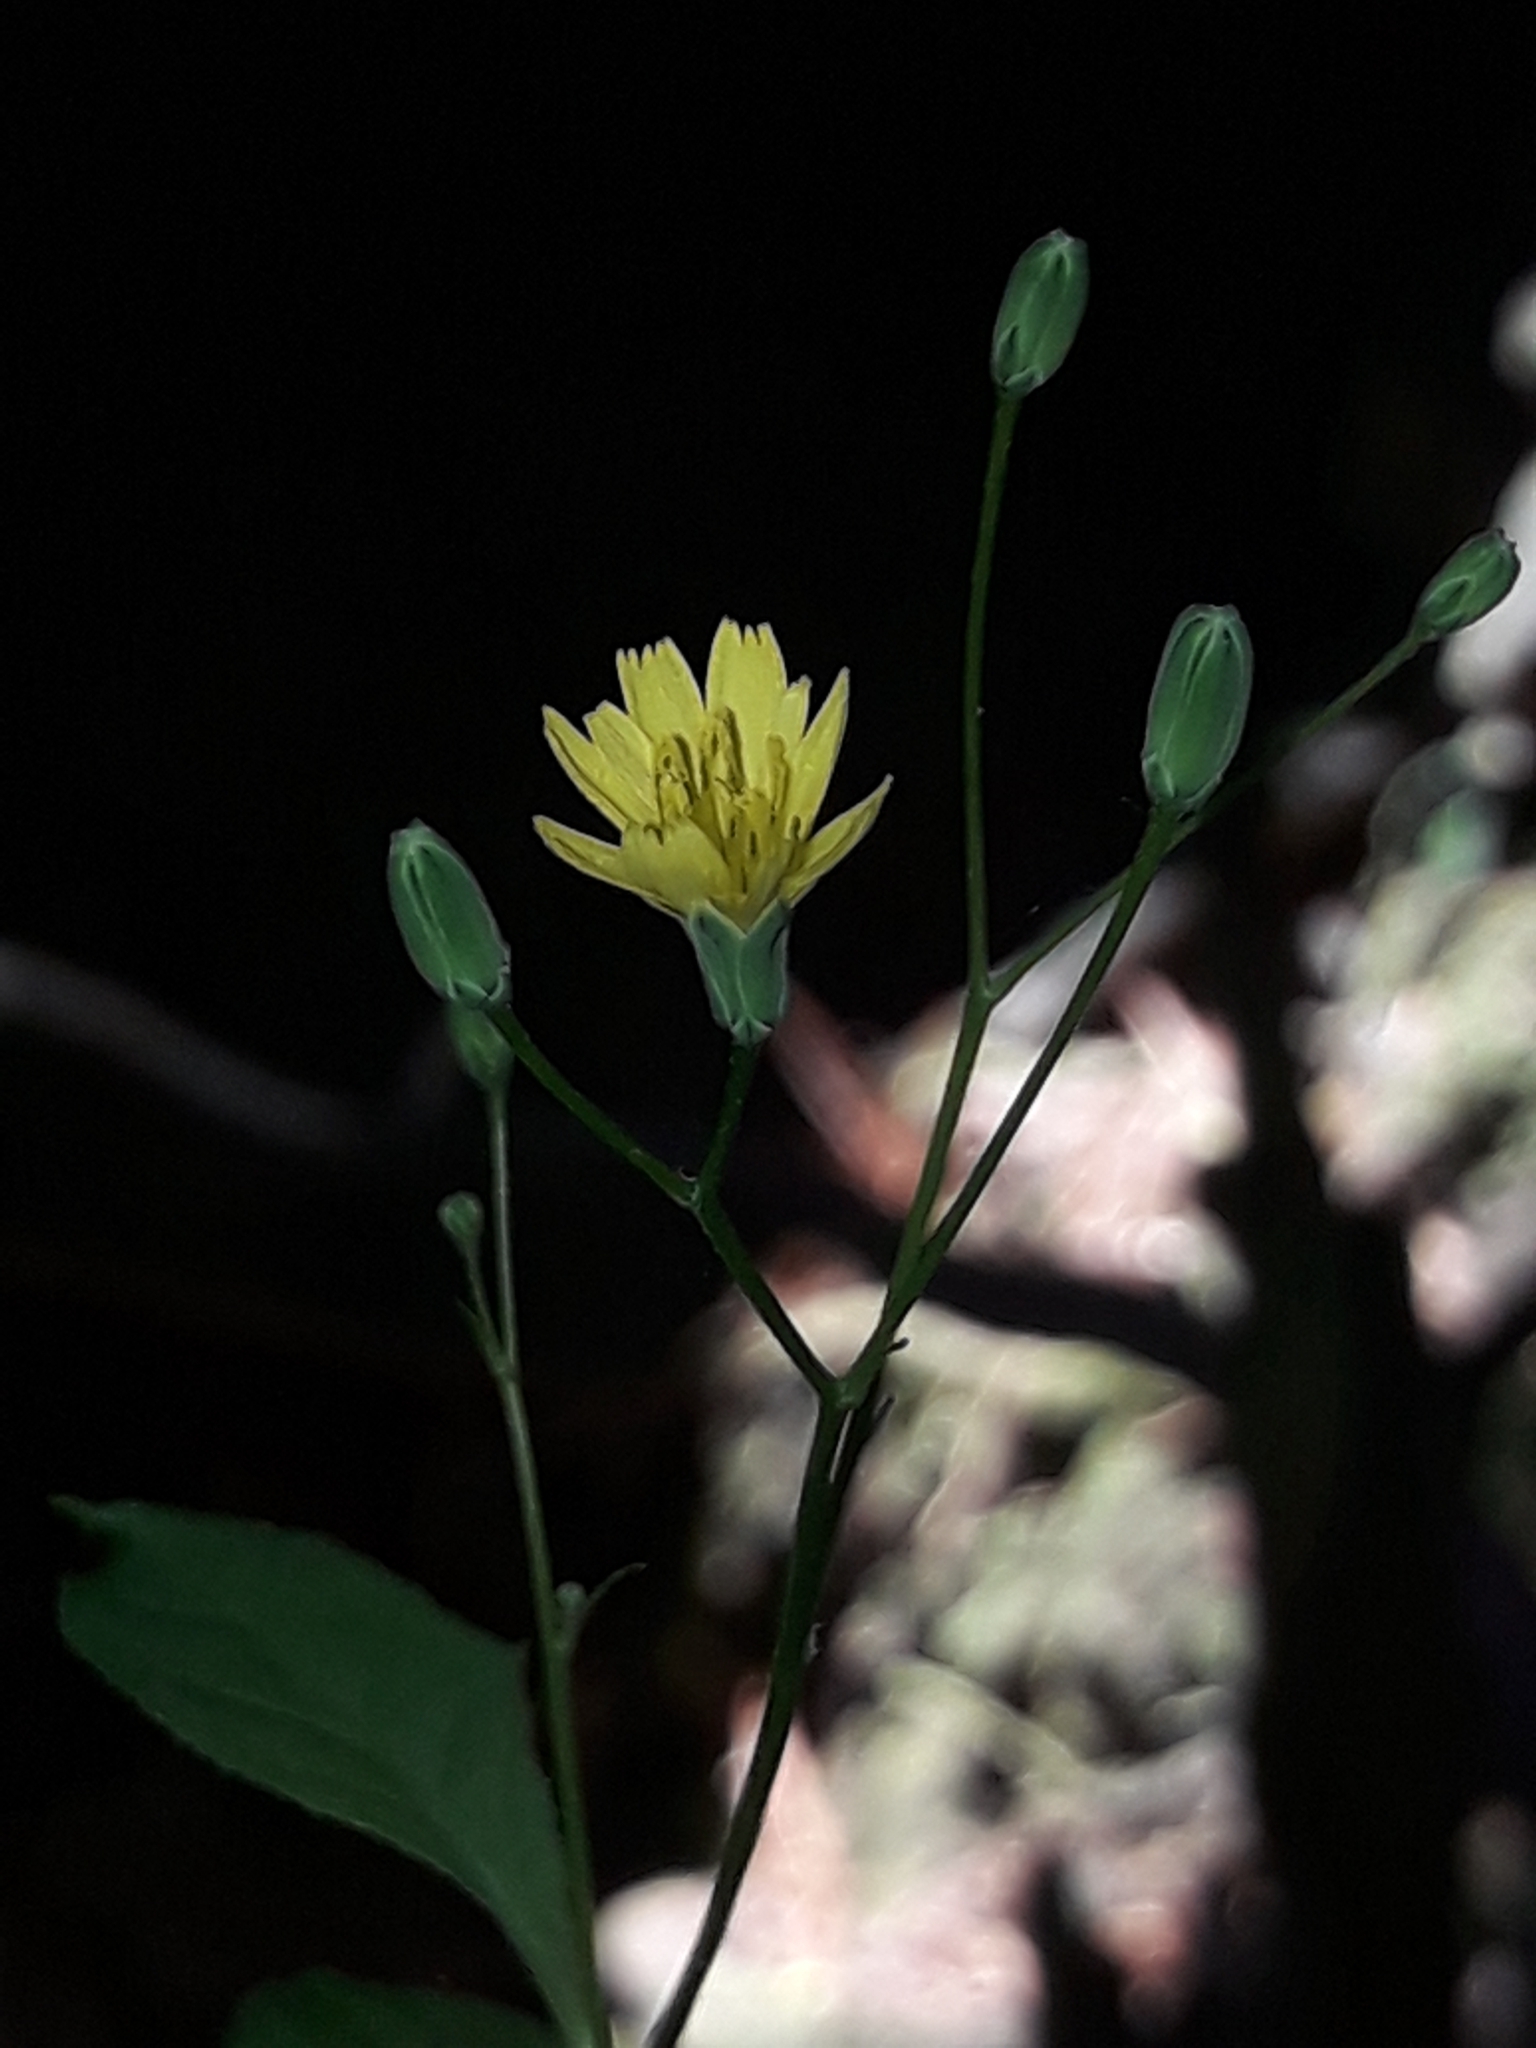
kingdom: Plantae
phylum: Tracheophyta
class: Magnoliopsida
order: Asterales
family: Asteraceae
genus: Lapsana
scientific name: Lapsana communis
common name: Nipplewort
